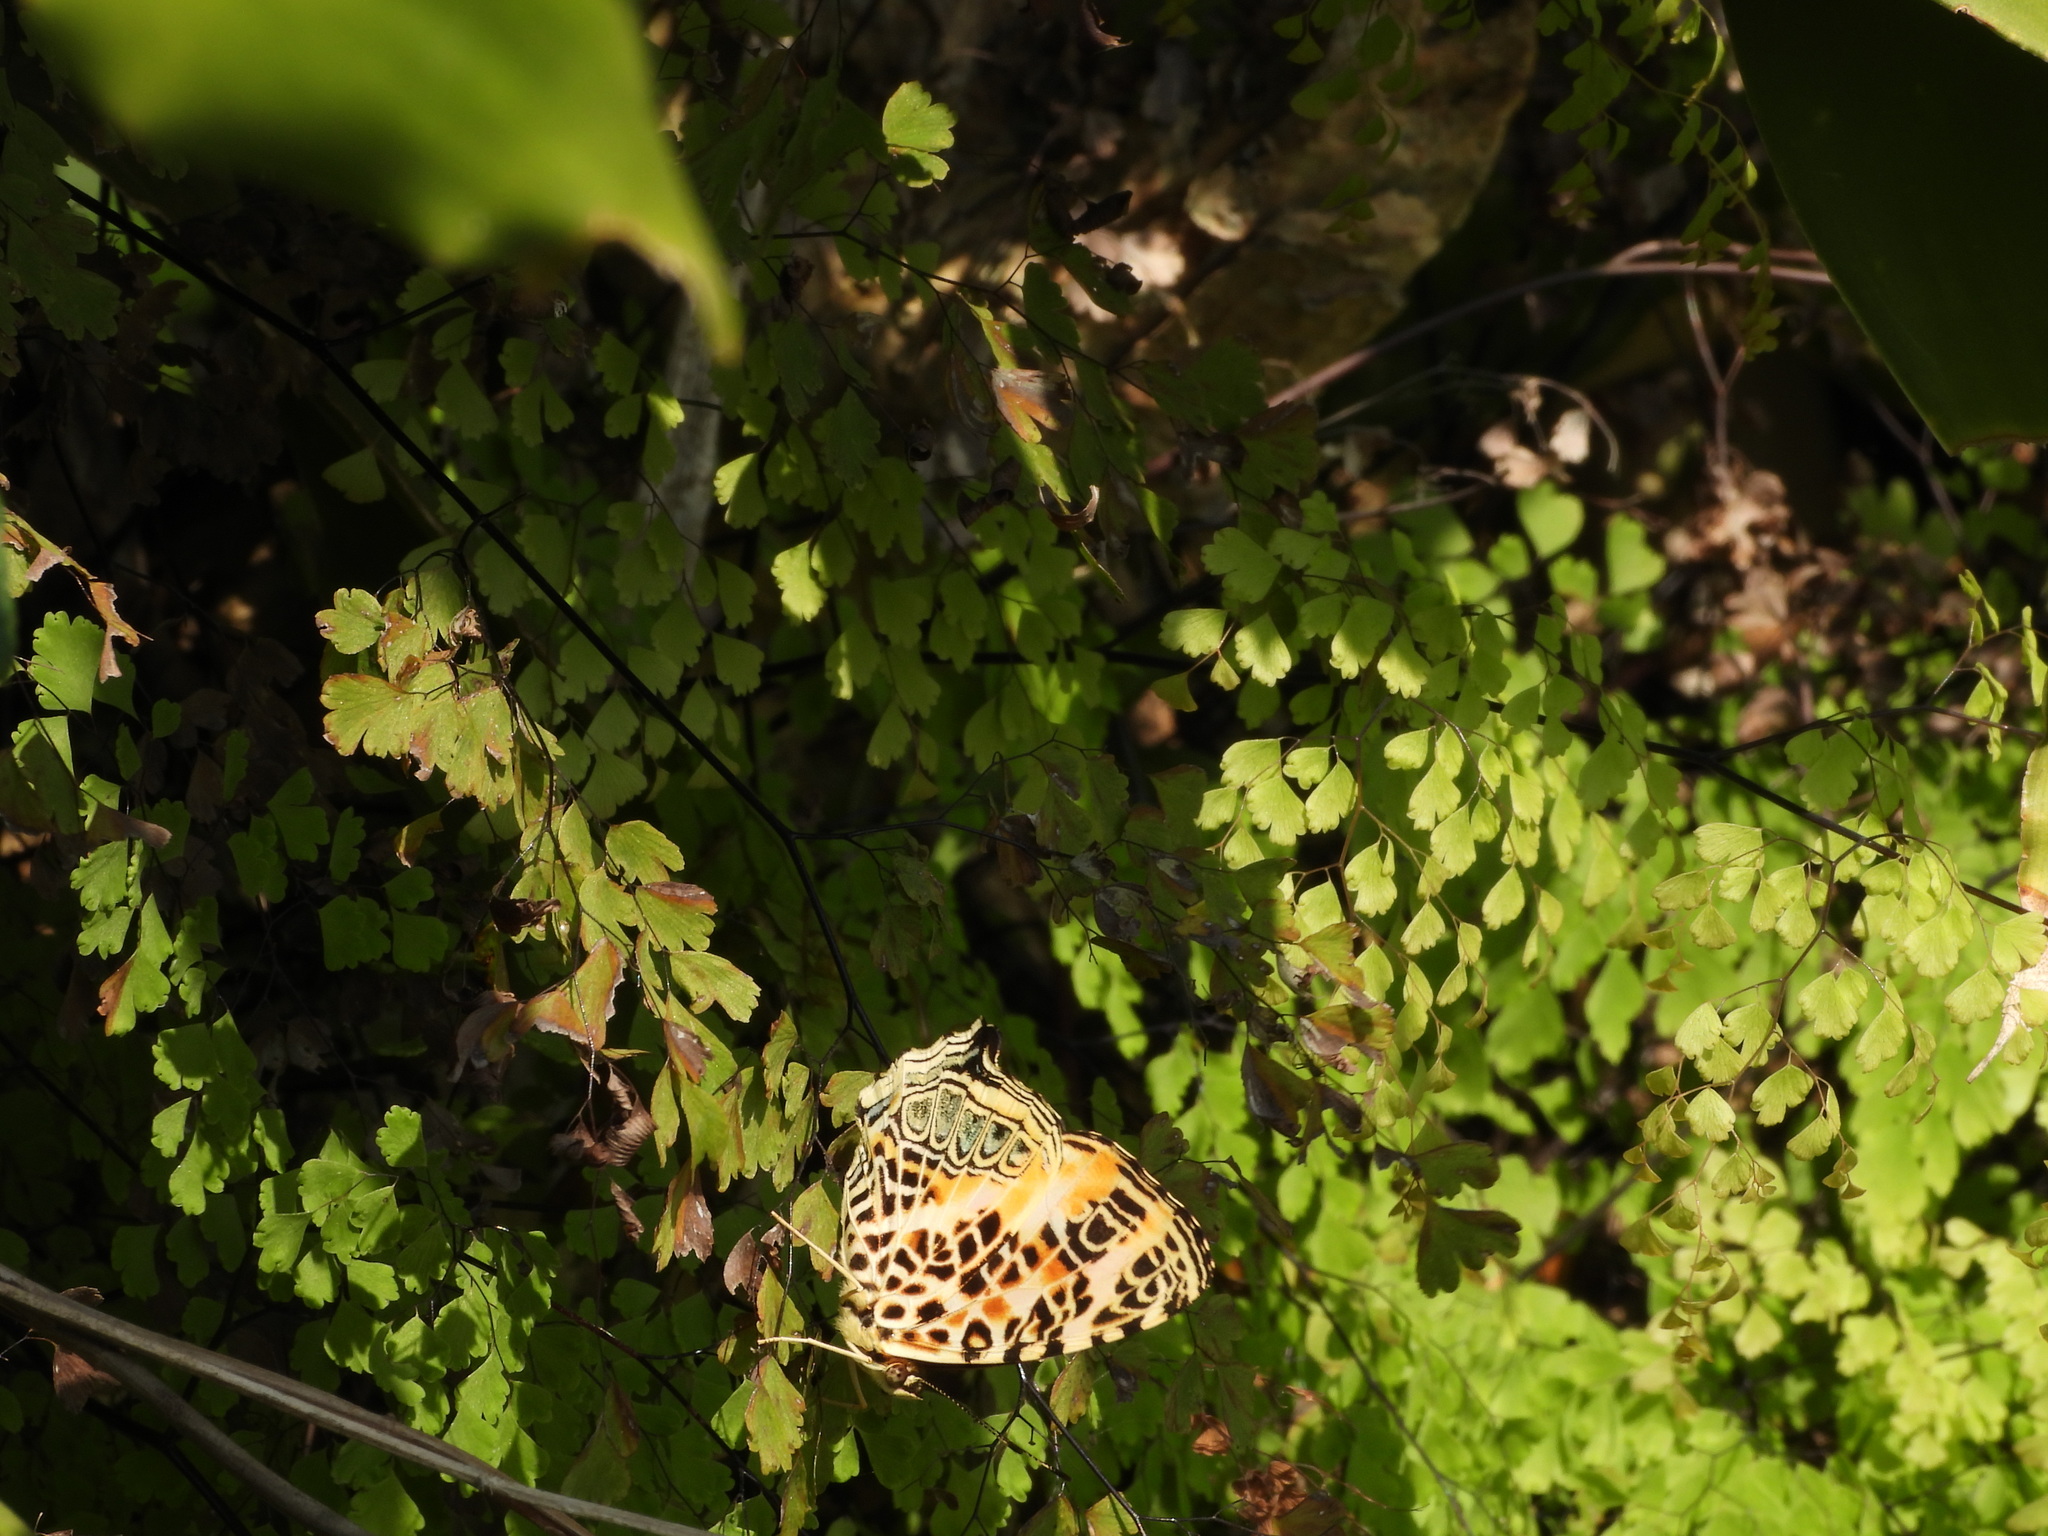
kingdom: Animalia
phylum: Arthropoda
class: Insecta
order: Lepidoptera
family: Nymphalidae
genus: Symbrenthia
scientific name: Symbrenthia hypselis
